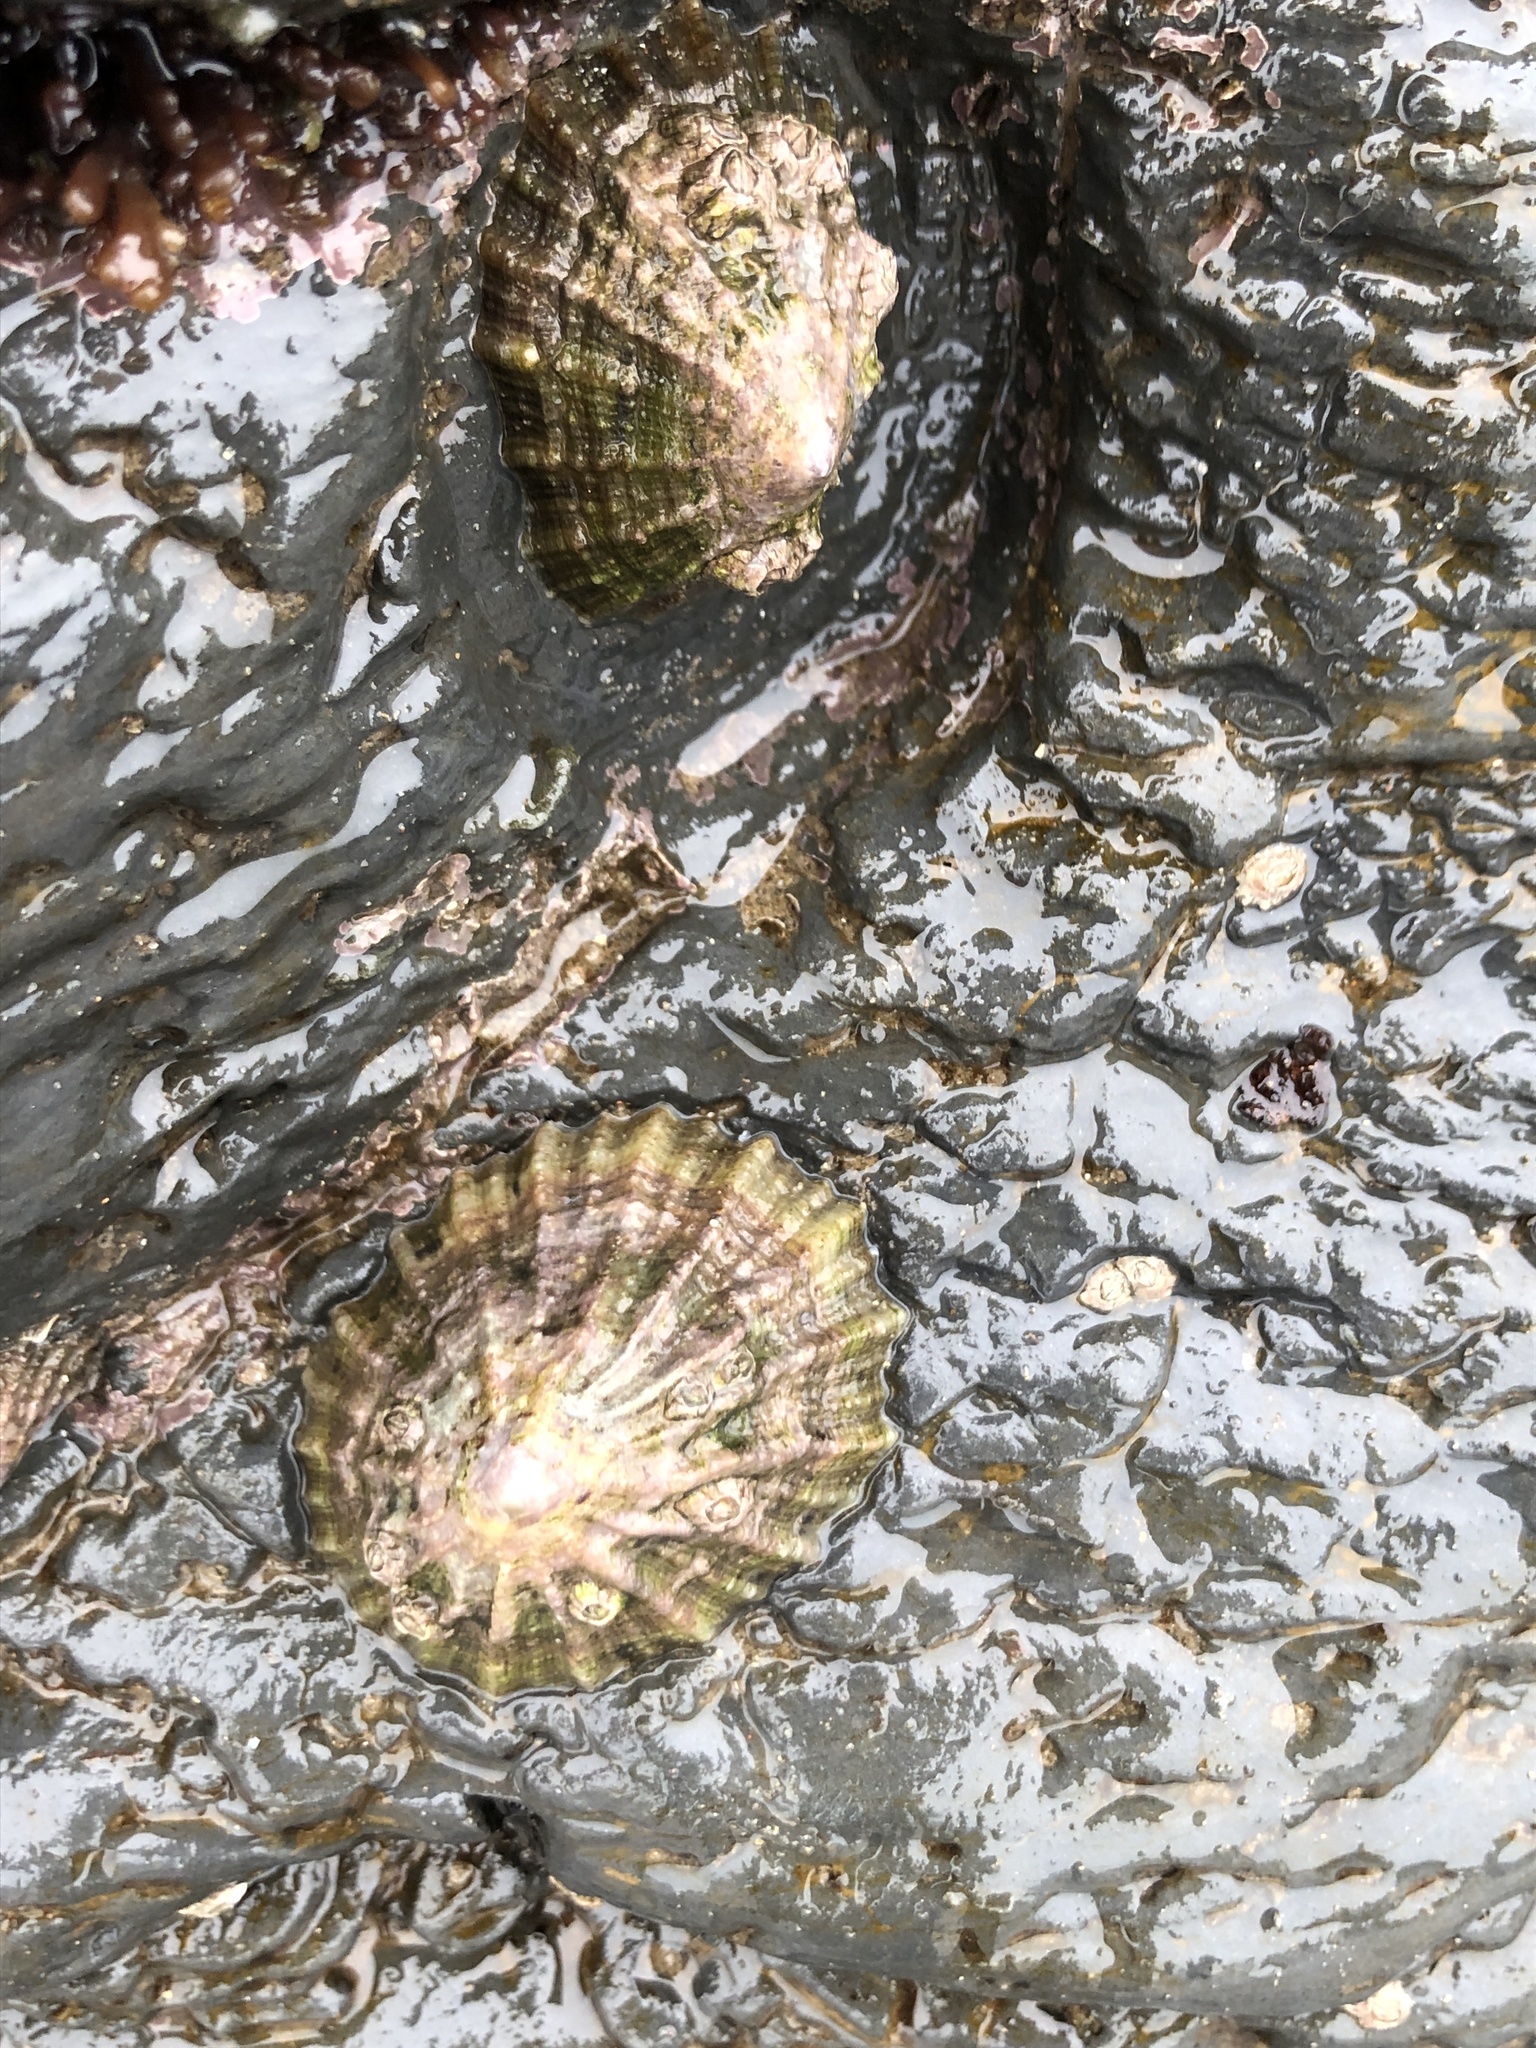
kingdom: Animalia
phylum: Mollusca
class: Gastropoda
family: Patellidae
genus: Patella
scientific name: Patella vulgata
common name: Common limpet
